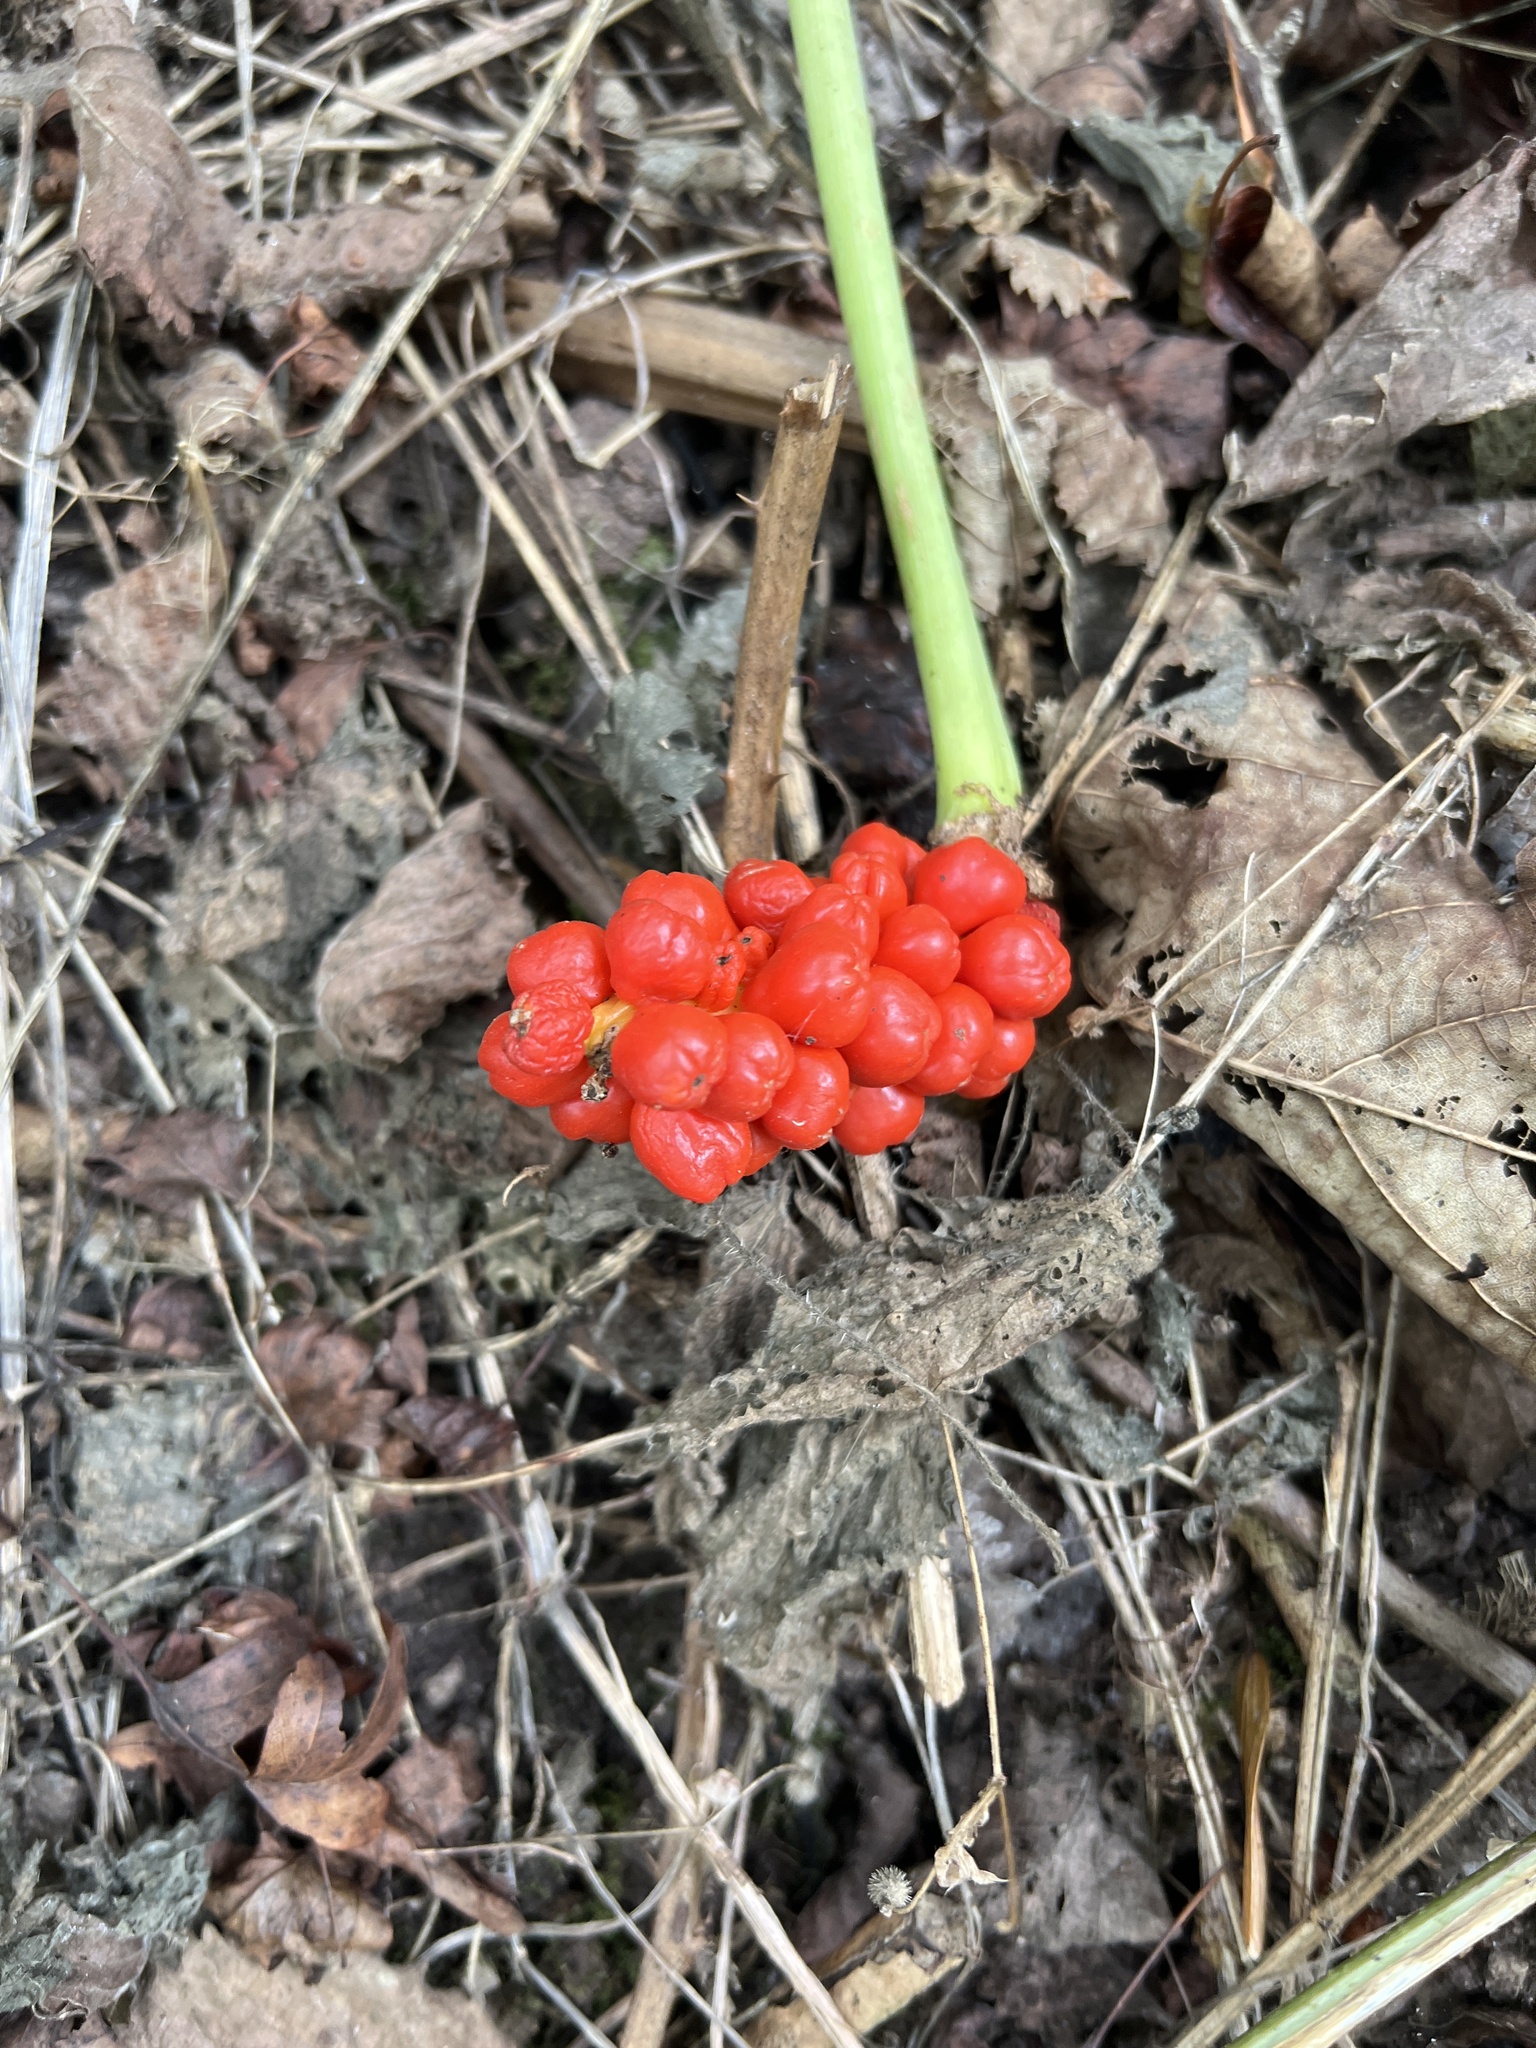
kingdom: Plantae
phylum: Tracheophyta
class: Liliopsida
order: Alismatales
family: Araceae
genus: Arum
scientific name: Arum maculatum
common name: Lords-and-ladies
